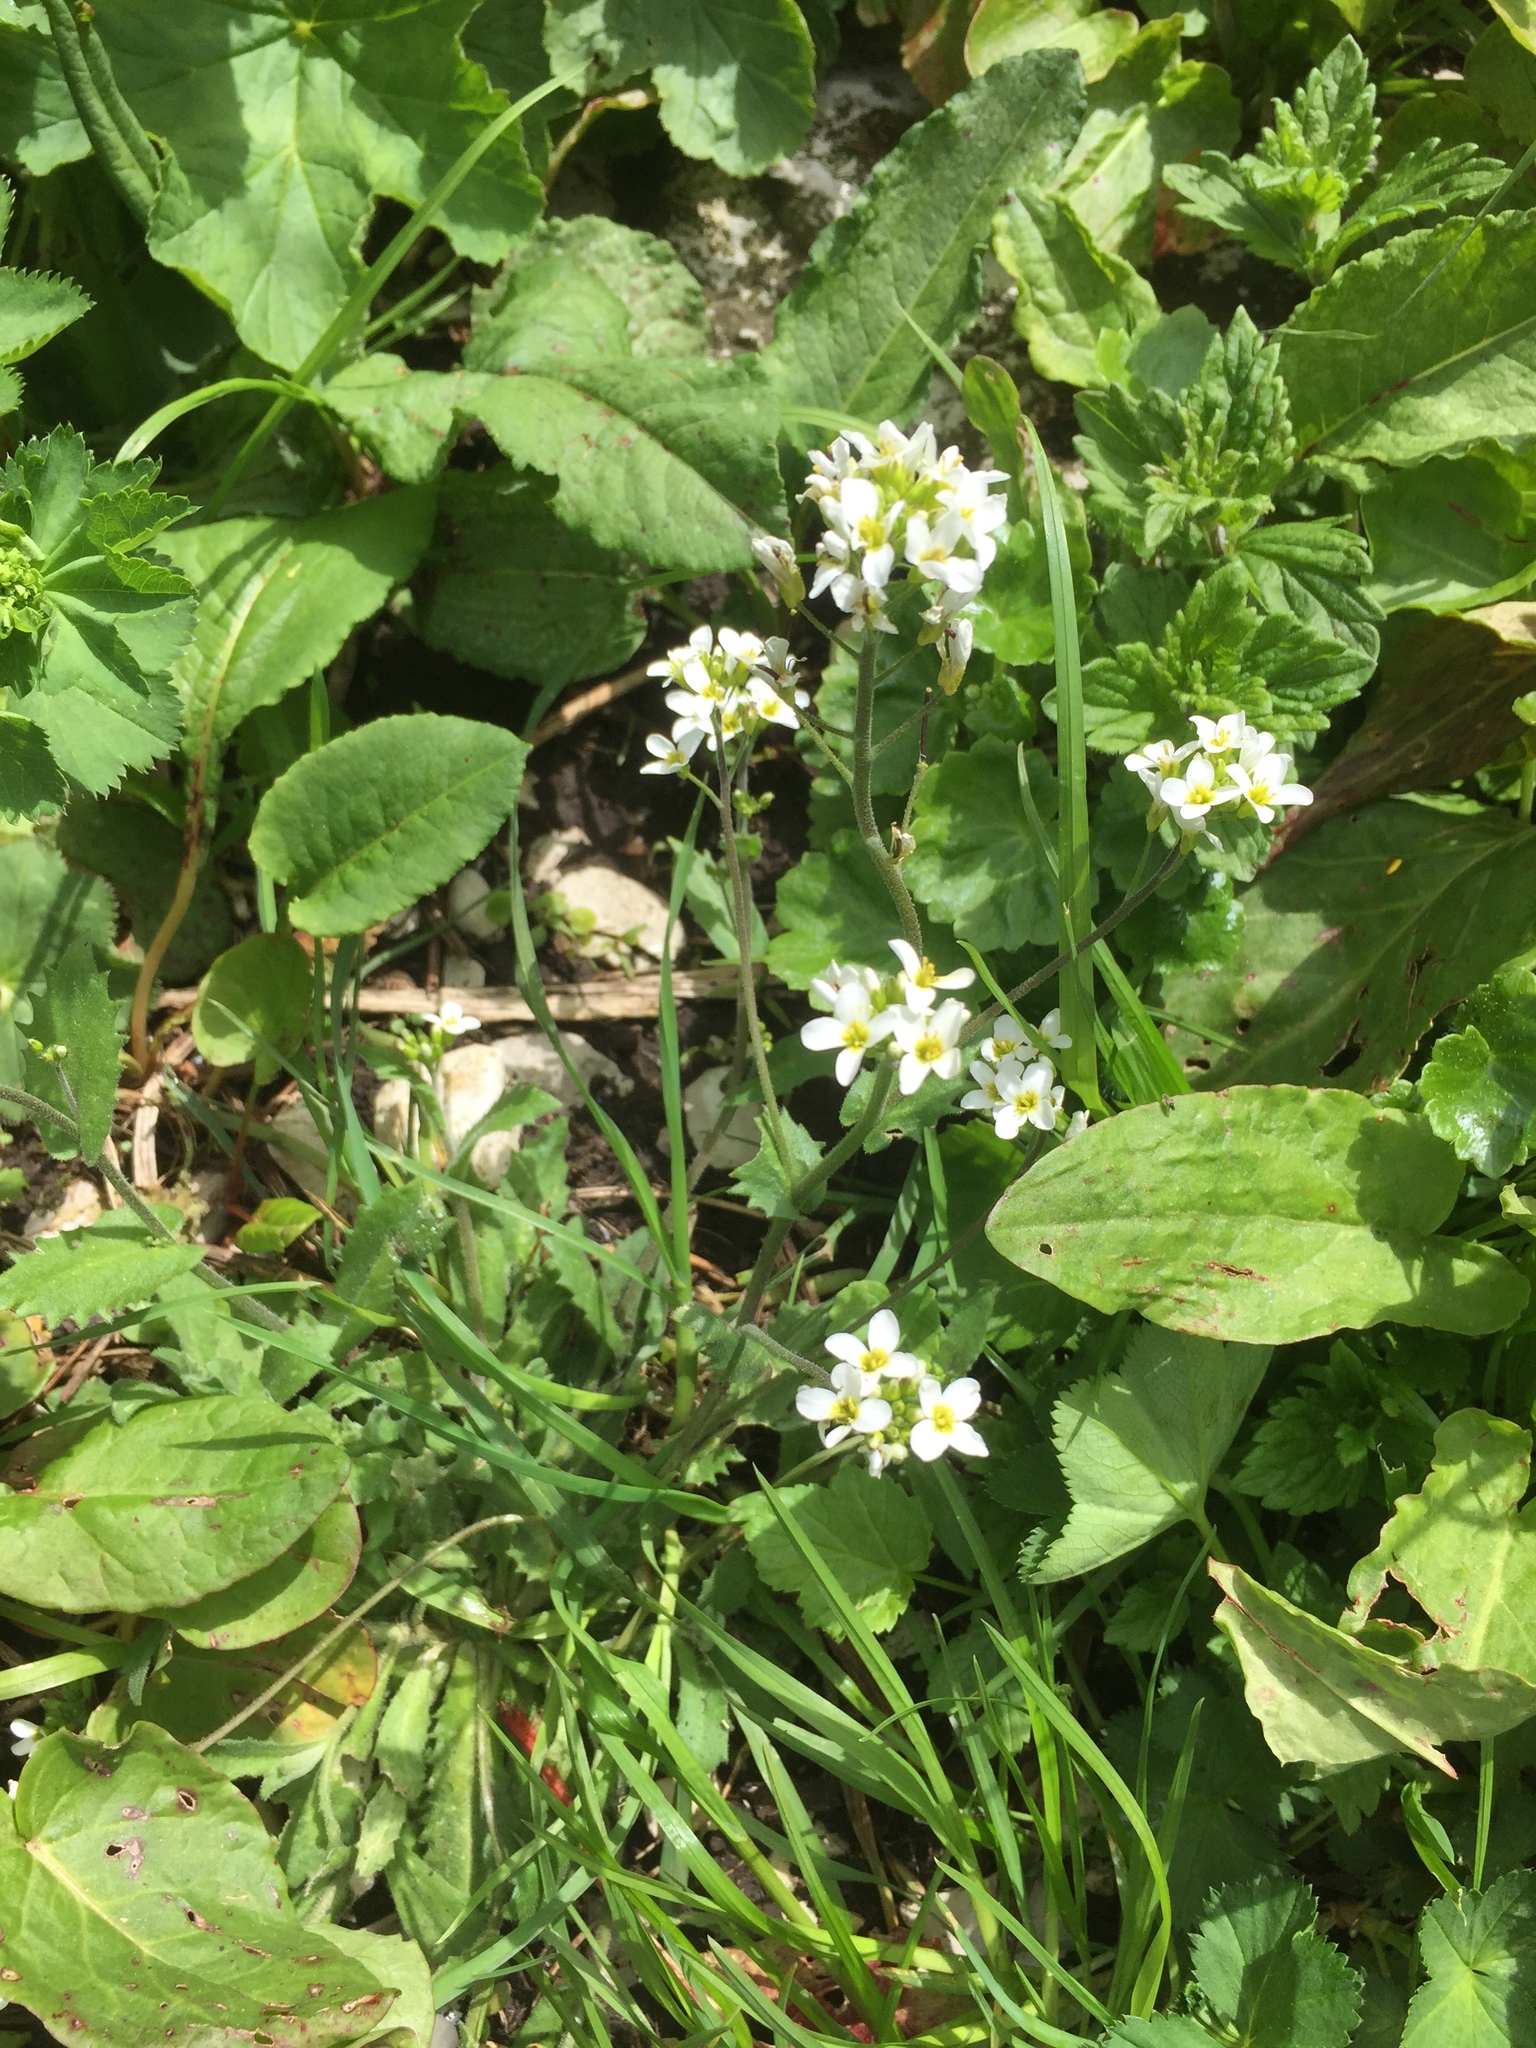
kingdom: Plantae
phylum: Tracheophyta
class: Magnoliopsida
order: Brassicales
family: Brassicaceae
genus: Arabis
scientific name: Arabis alpina
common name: Alpine rock-cress
